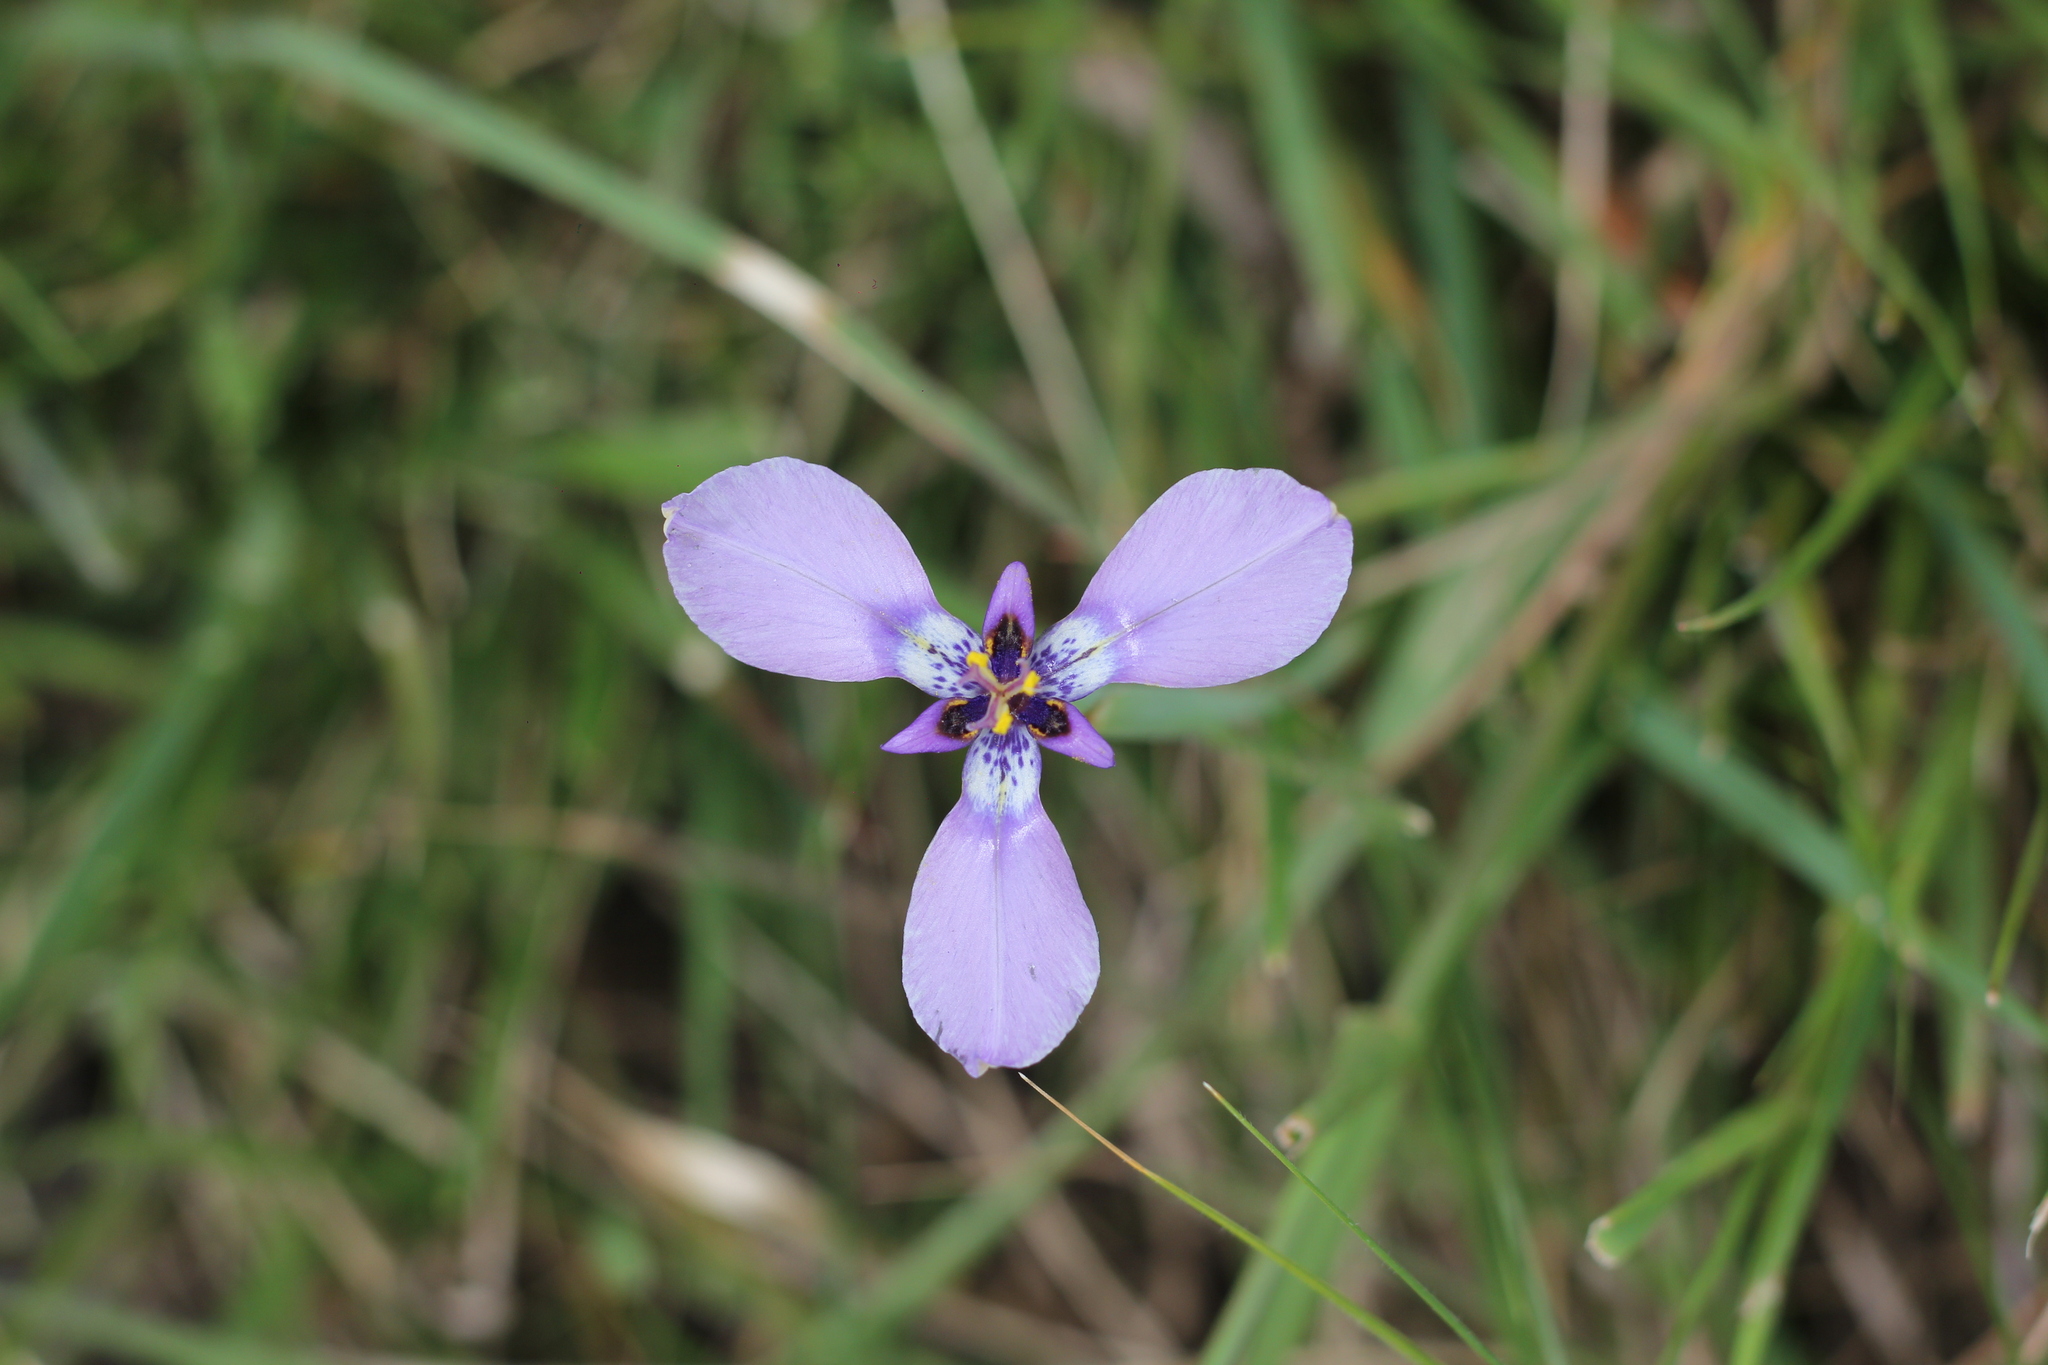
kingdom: Plantae
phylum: Tracheophyta
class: Liliopsida
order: Asparagales
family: Iridaceae
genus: Herbertia
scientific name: Herbertia lahue
